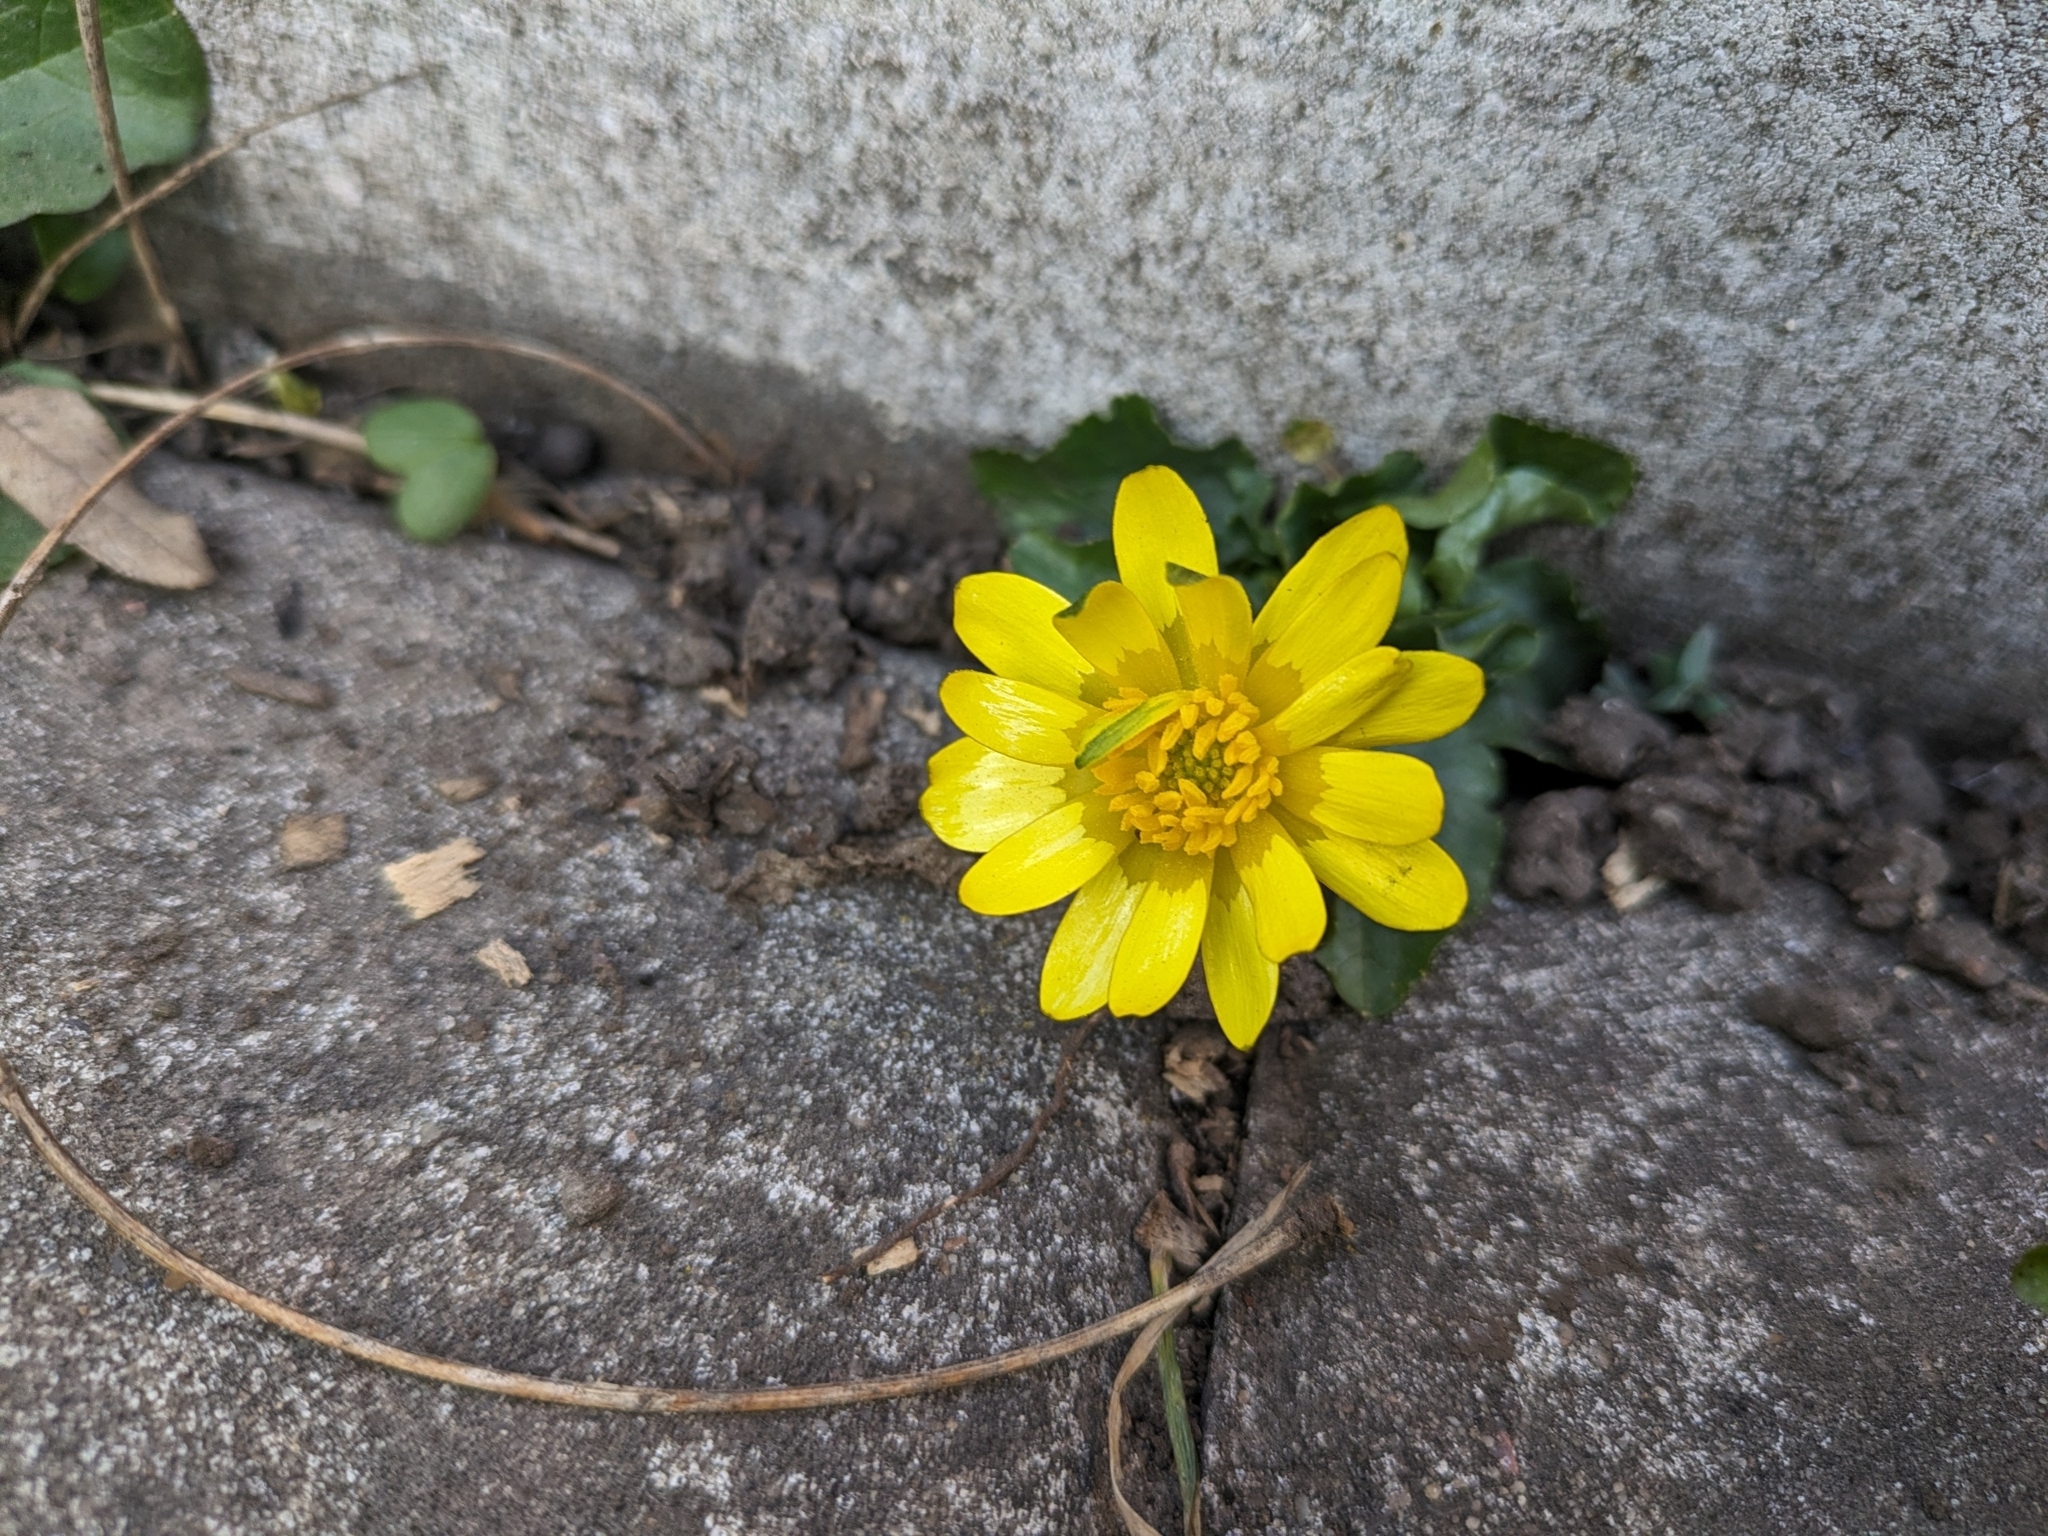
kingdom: Plantae
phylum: Tracheophyta
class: Magnoliopsida
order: Ranunculales
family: Ranunculaceae
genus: Ficaria
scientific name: Ficaria verna
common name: Lesser celandine
